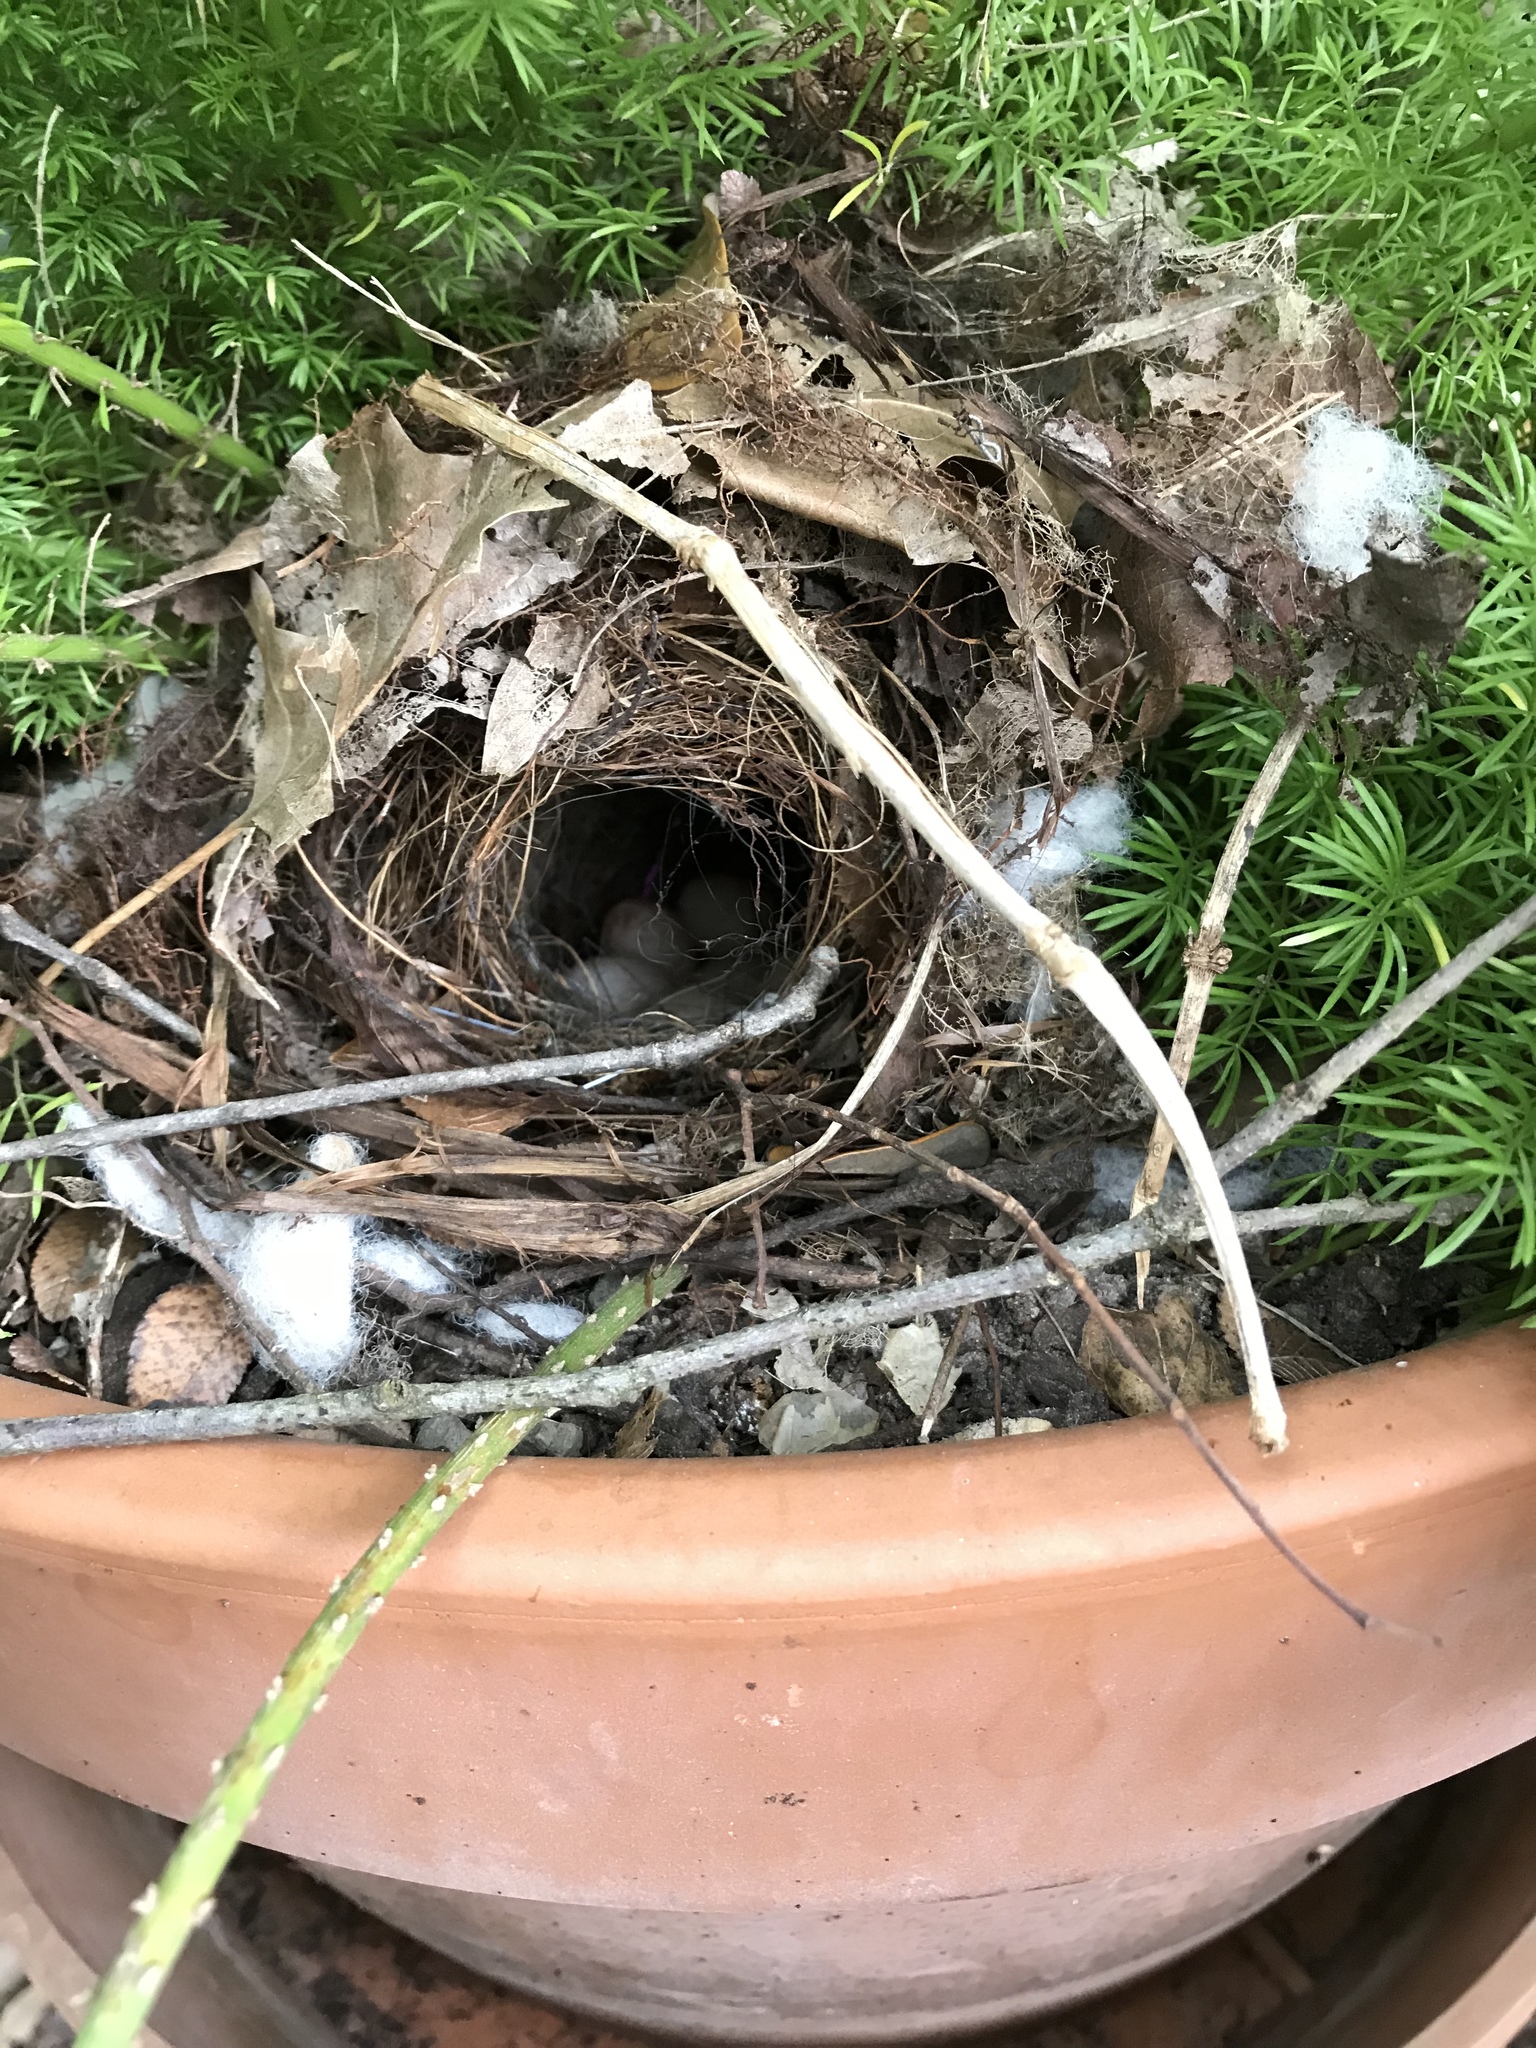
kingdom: Animalia
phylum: Chordata
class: Aves
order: Passeriformes
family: Troglodytidae
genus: Troglodytes
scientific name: Troglodytes aedon
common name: House wren
